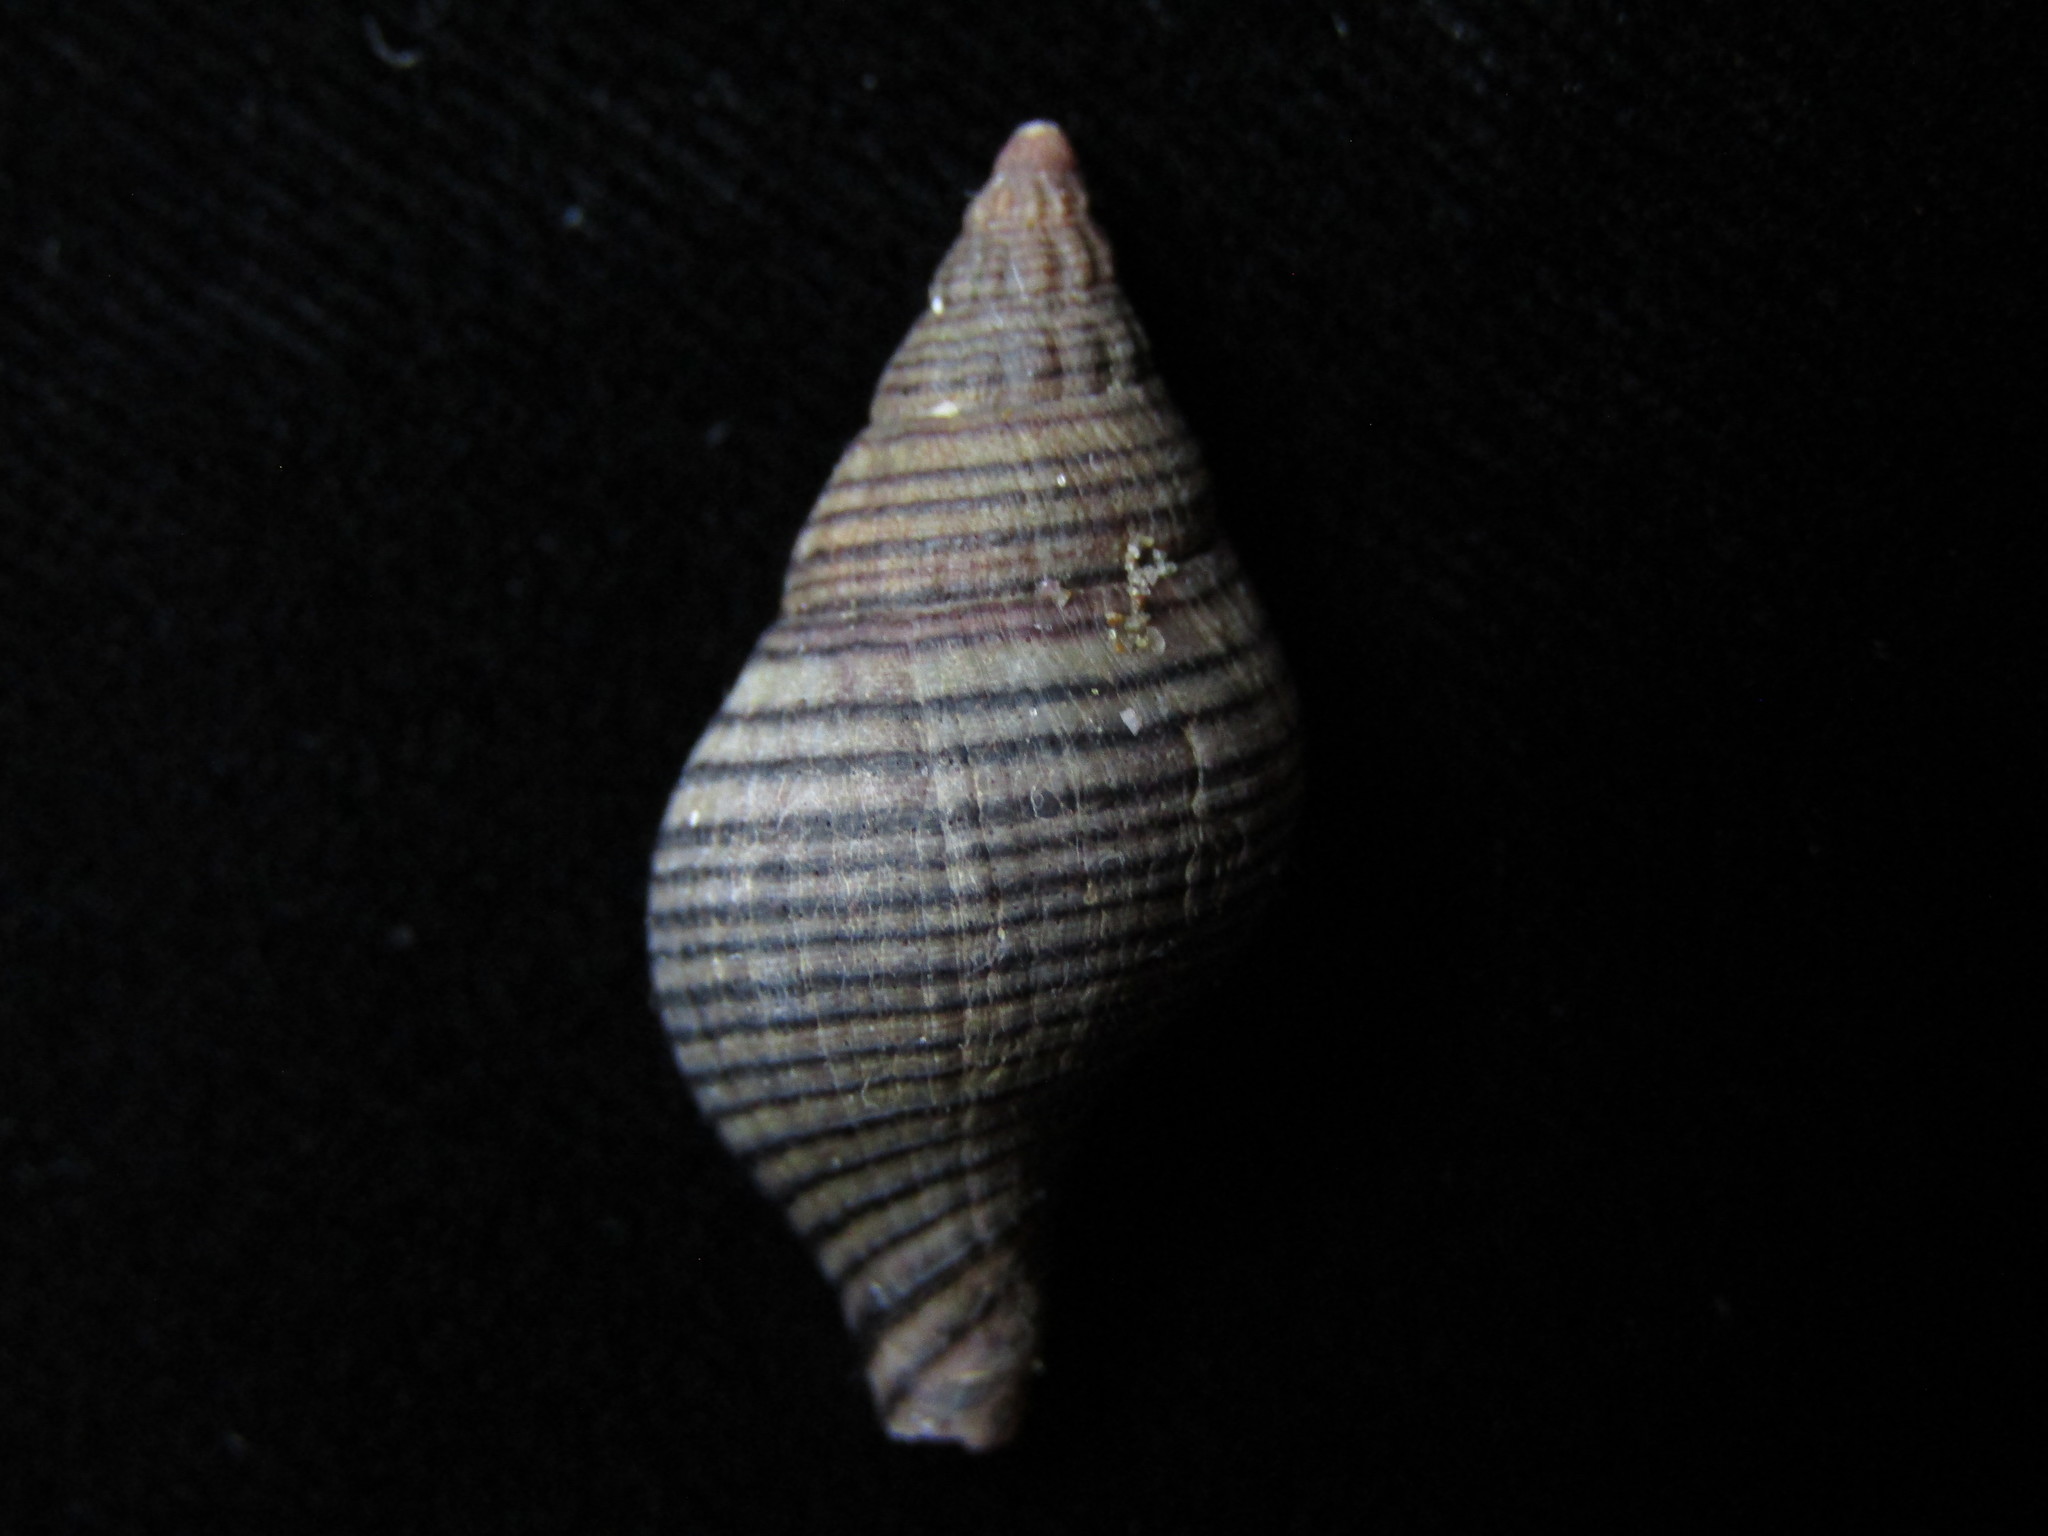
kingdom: Animalia
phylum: Mollusca
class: Gastropoda
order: Neogastropoda
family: Tudiclidae
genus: Buccinulum
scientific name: Buccinulum linea
